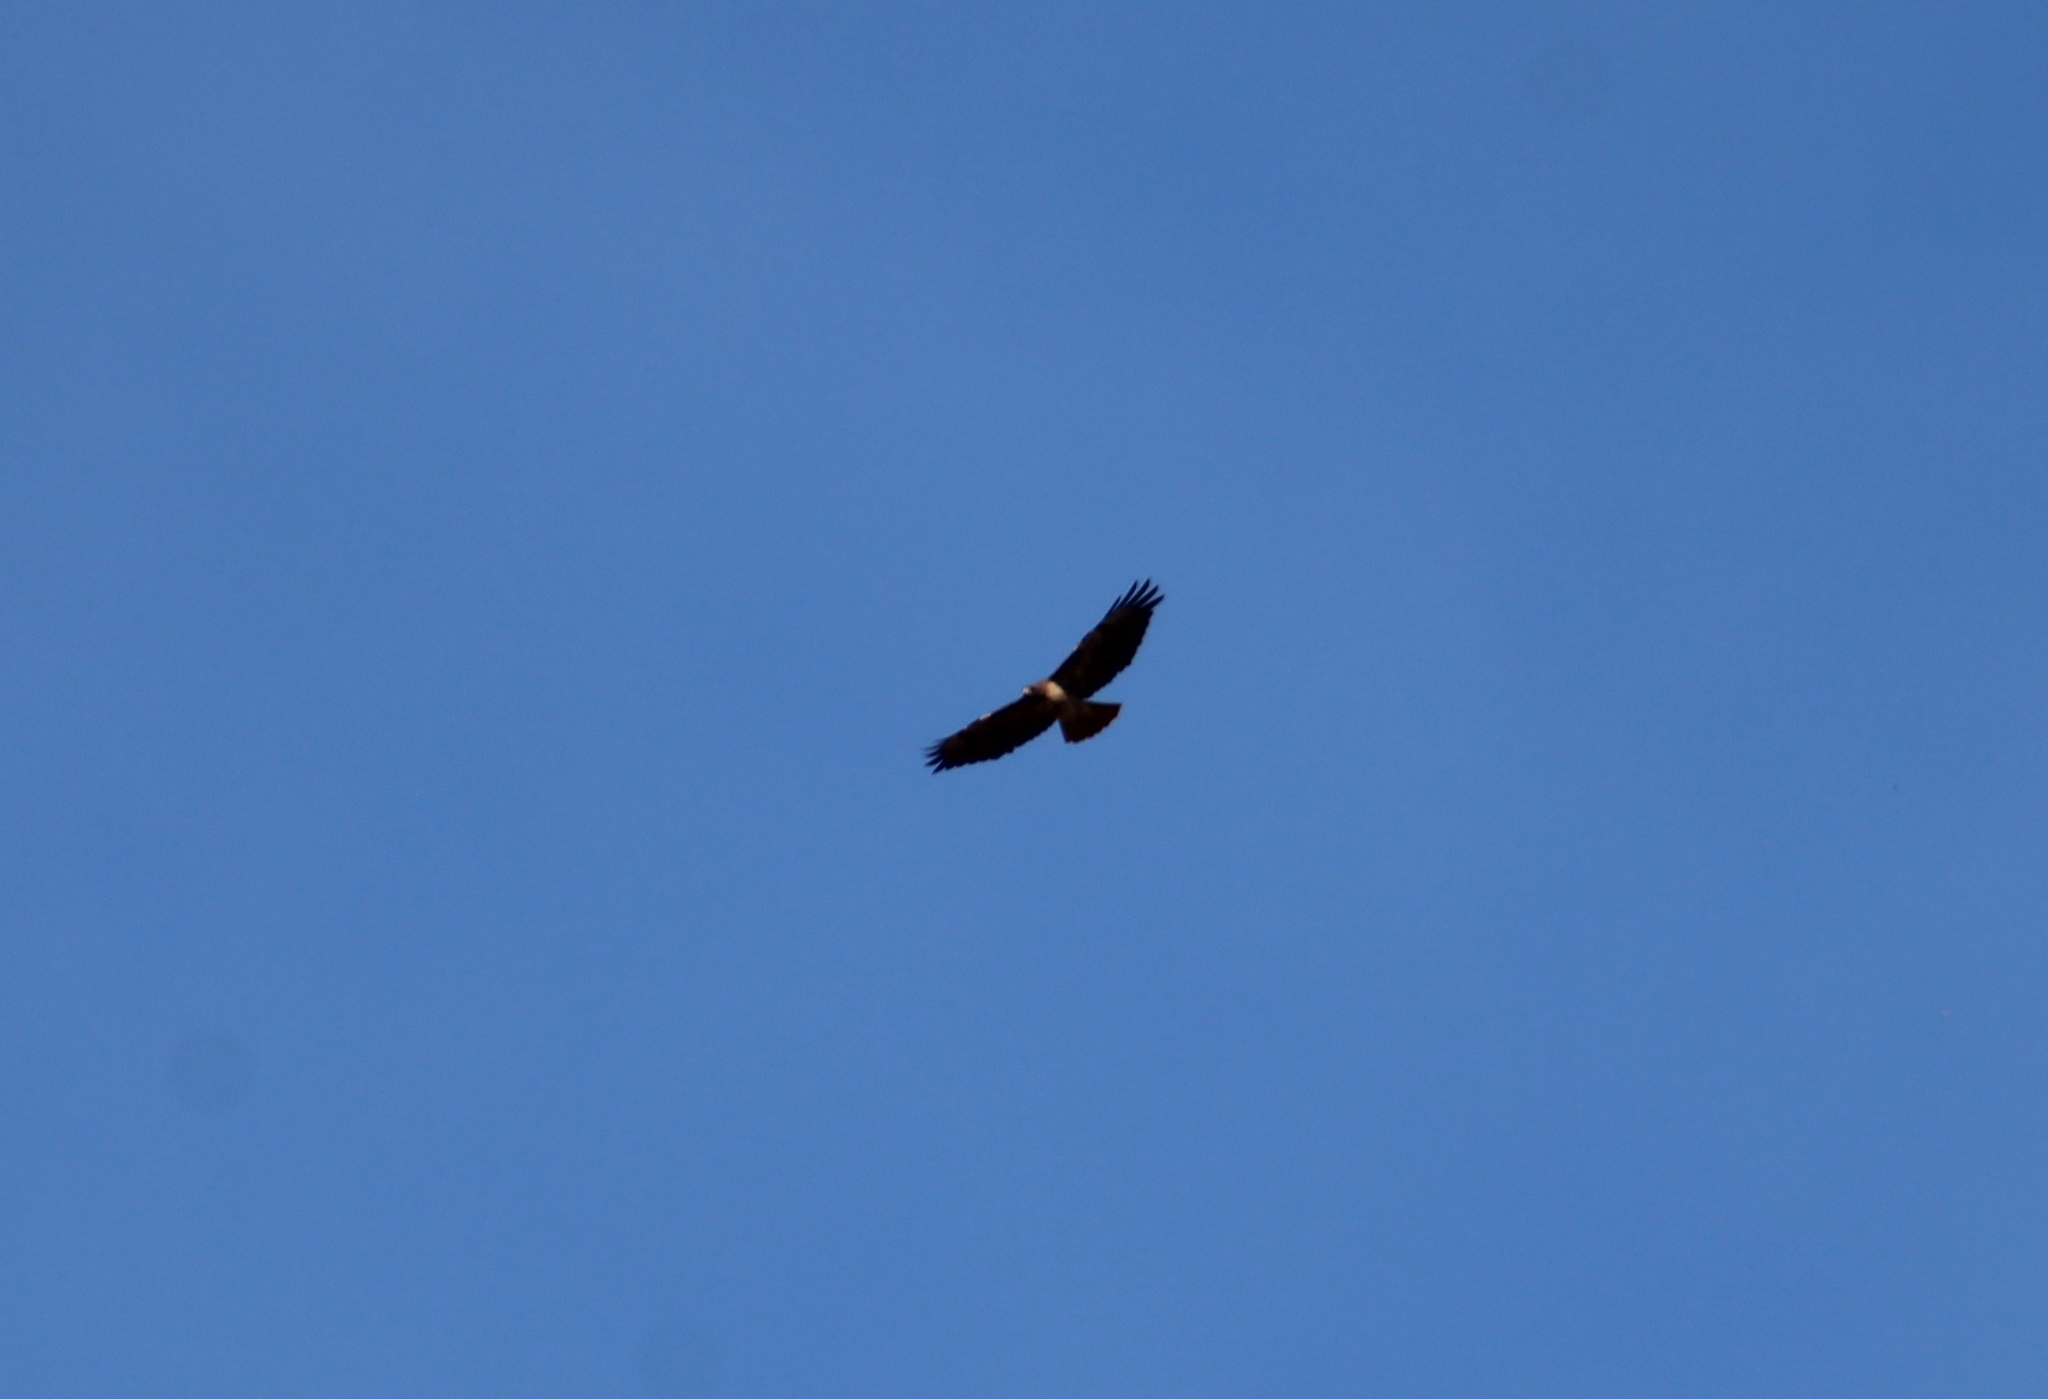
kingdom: Animalia
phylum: Chordata
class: Aves
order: Accipitriformes
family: Accipitridae
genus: Buteo
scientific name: Buteo jamaicensis
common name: Red-tailed hawk
